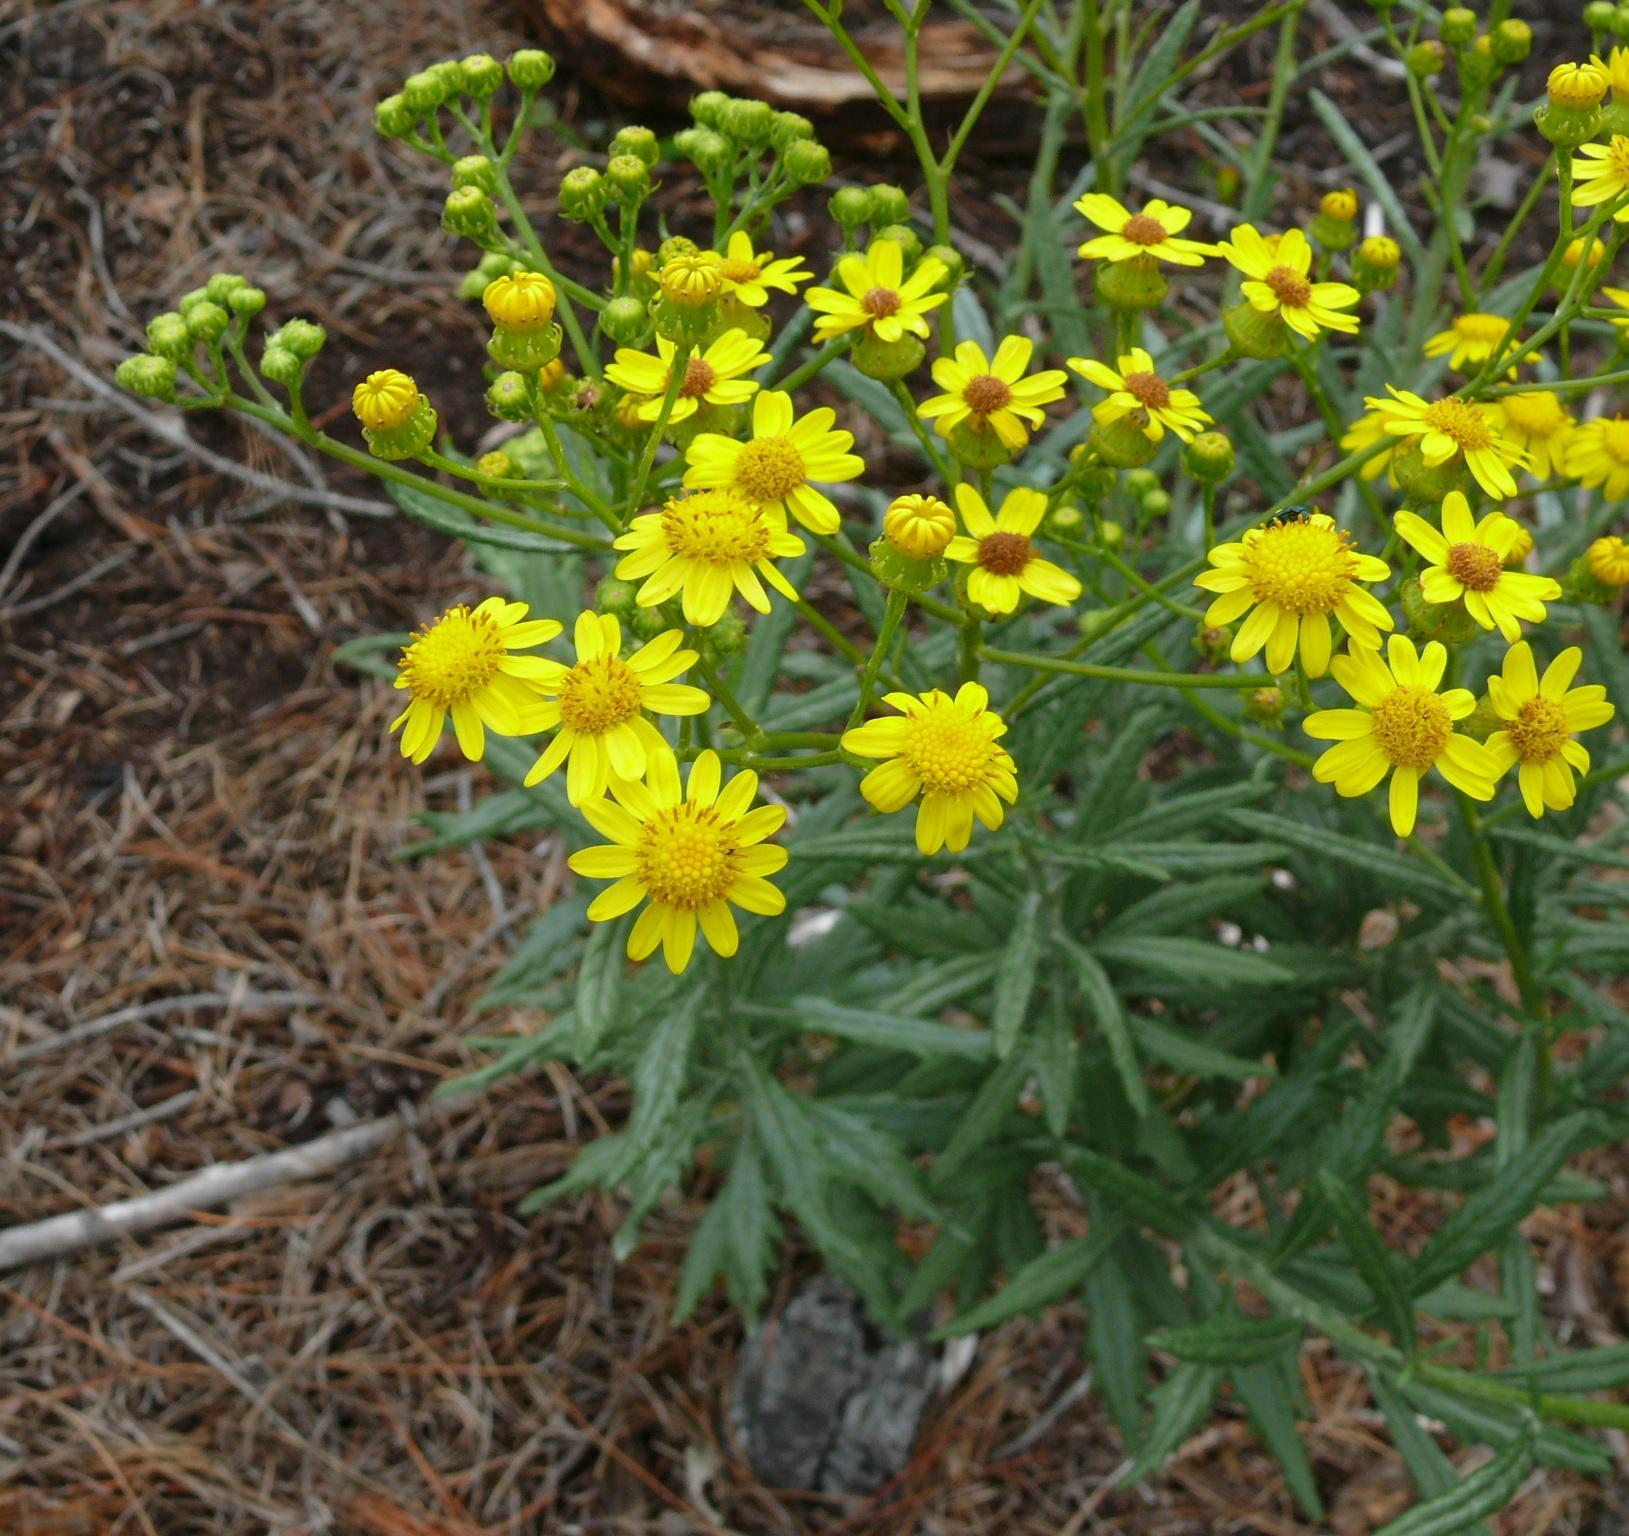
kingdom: Plantae
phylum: Tracheophyta
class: Magnoliopsida
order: Asterales
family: Asteraceae
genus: Senecio
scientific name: Senecio pterophorus
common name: Shoddy ragwort
